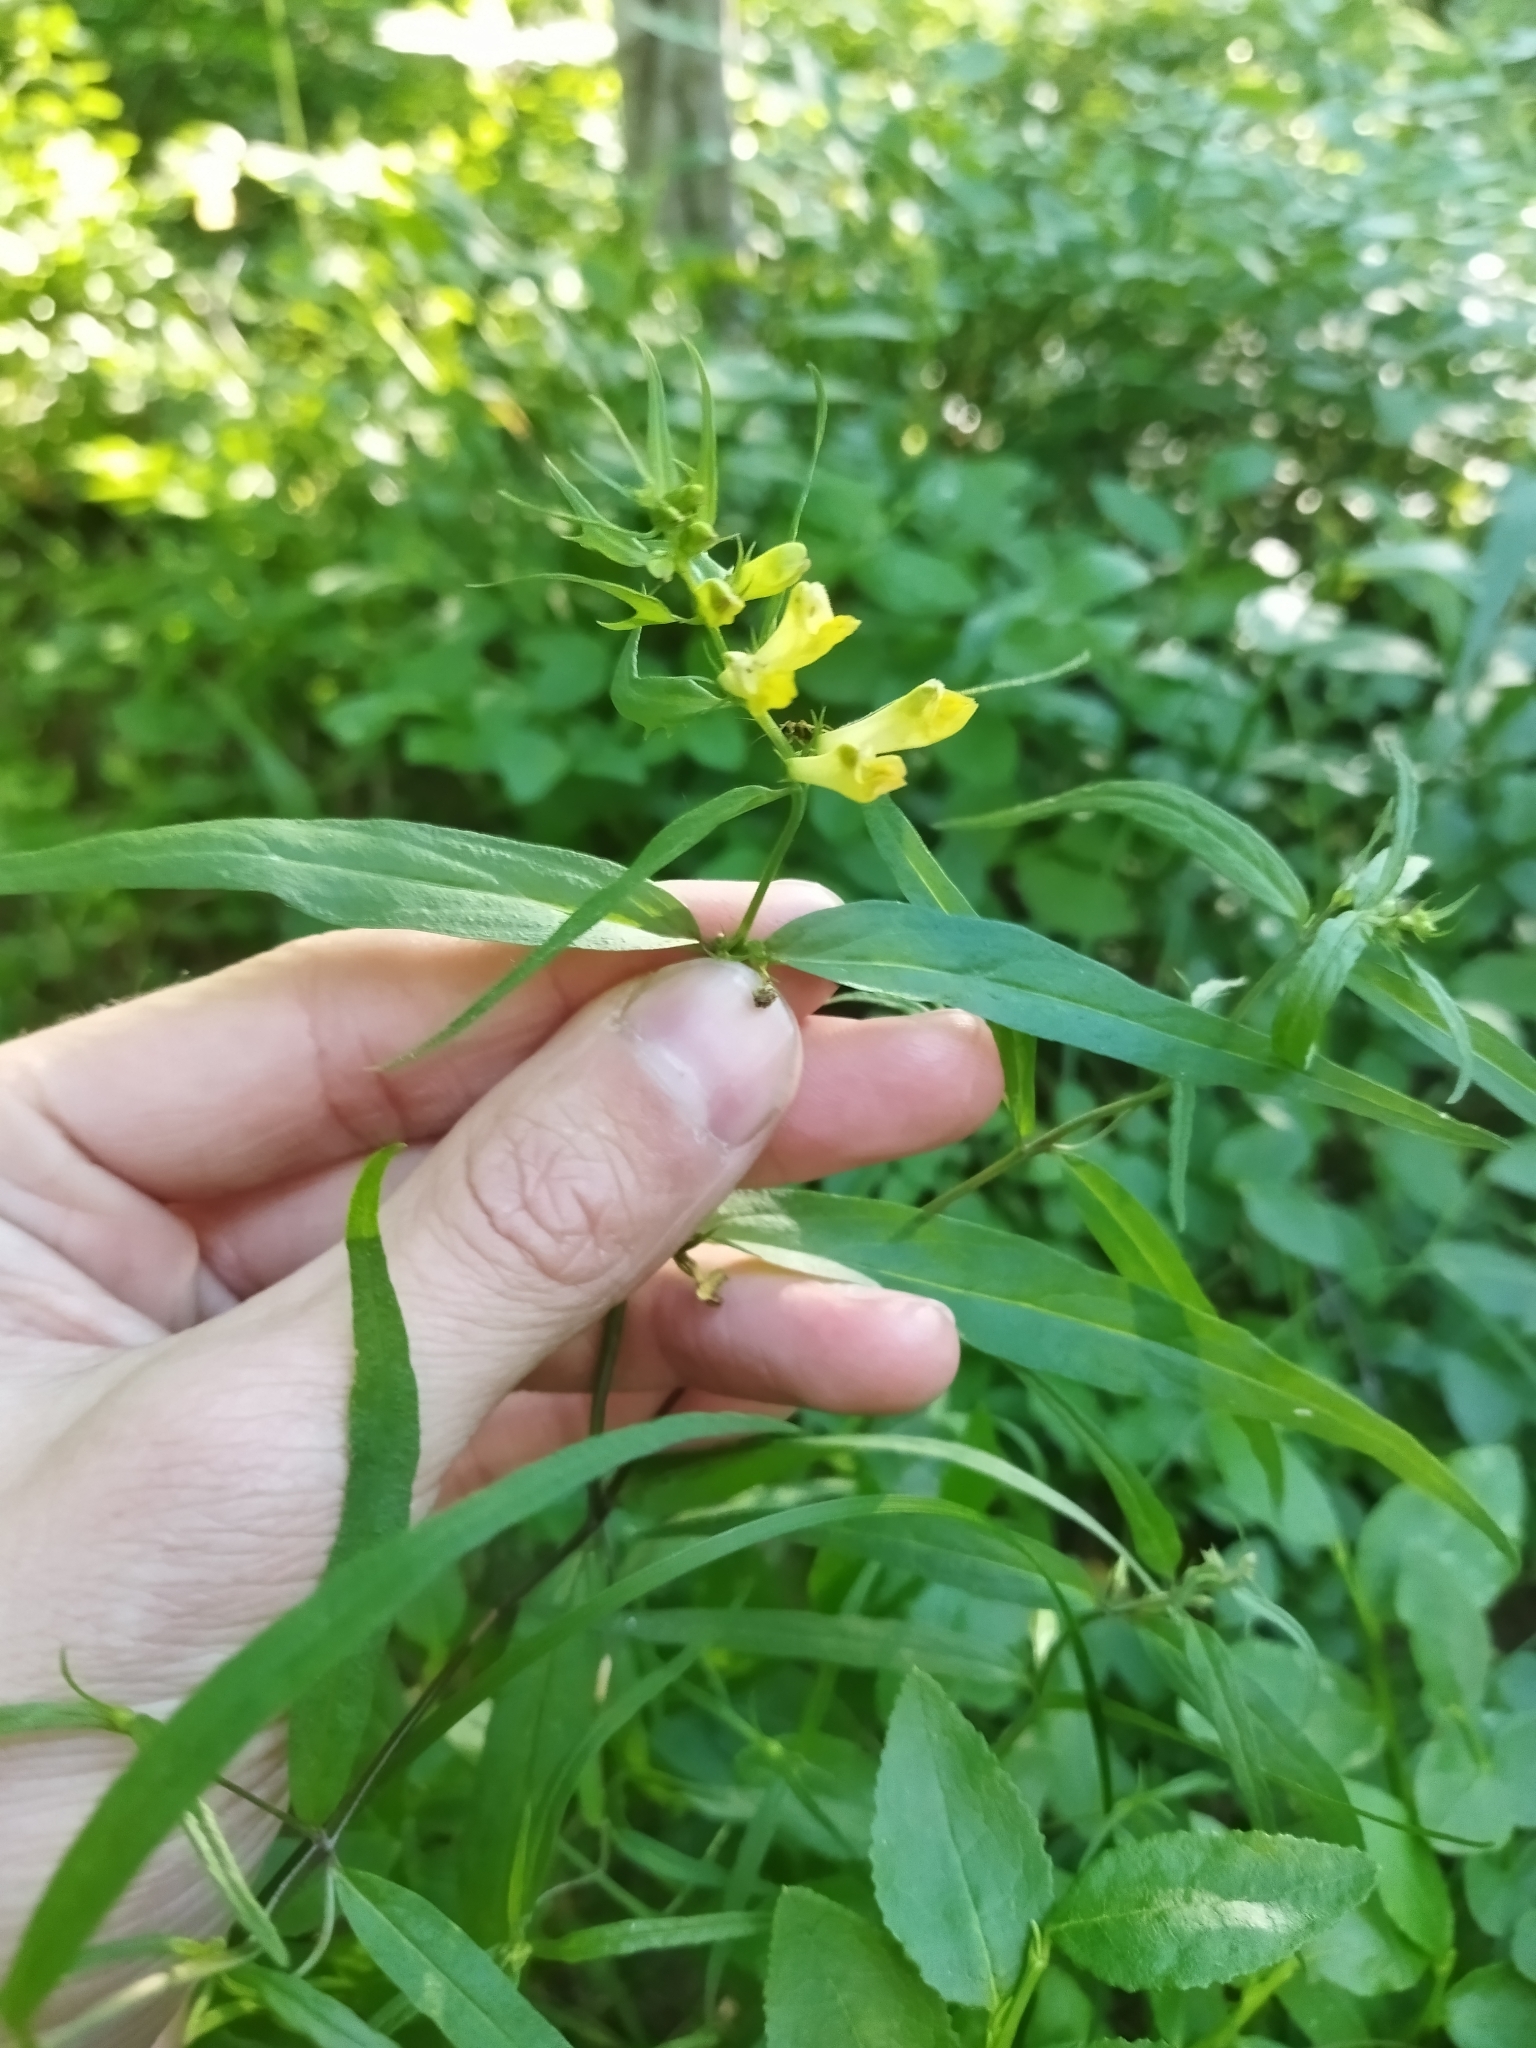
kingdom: Plantae
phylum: Tracheophyta
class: Magnoliopsida
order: Lamiales
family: Orobanchaceae
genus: Melampyrum
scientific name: Melampyrum pratense
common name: Common cow-wheat
